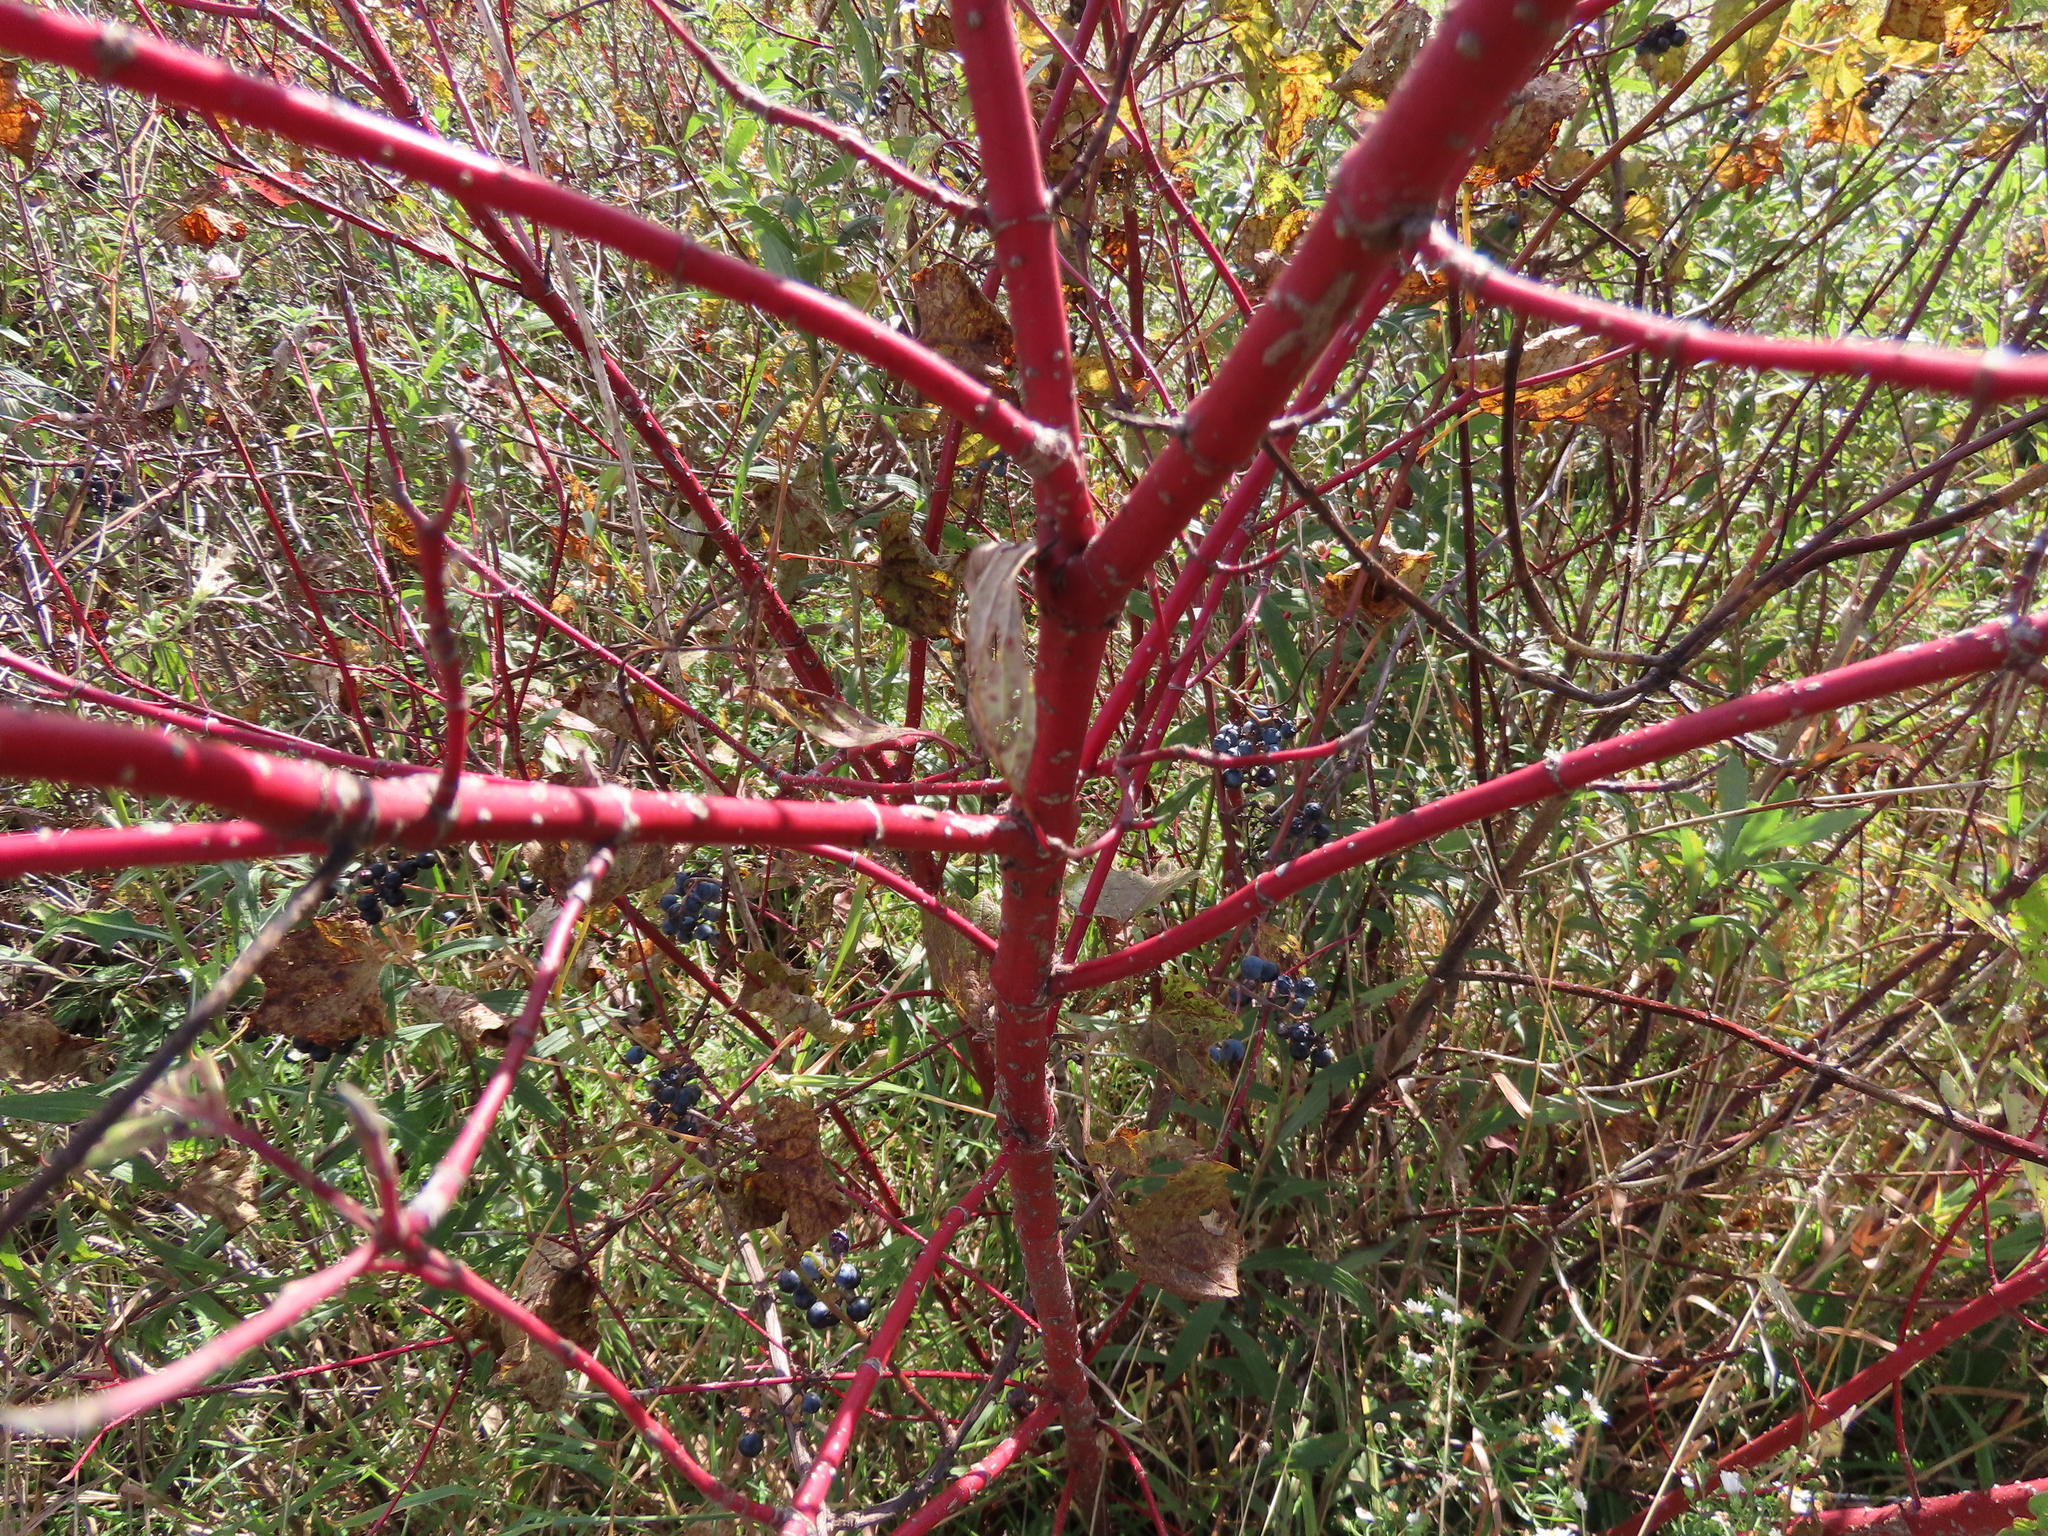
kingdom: Plantae
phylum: Tracheophyta
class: Magnoliopsida
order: Cornales
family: Cornaceae
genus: Cornus
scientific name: Cornus sericea
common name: Red-osier dogwood
